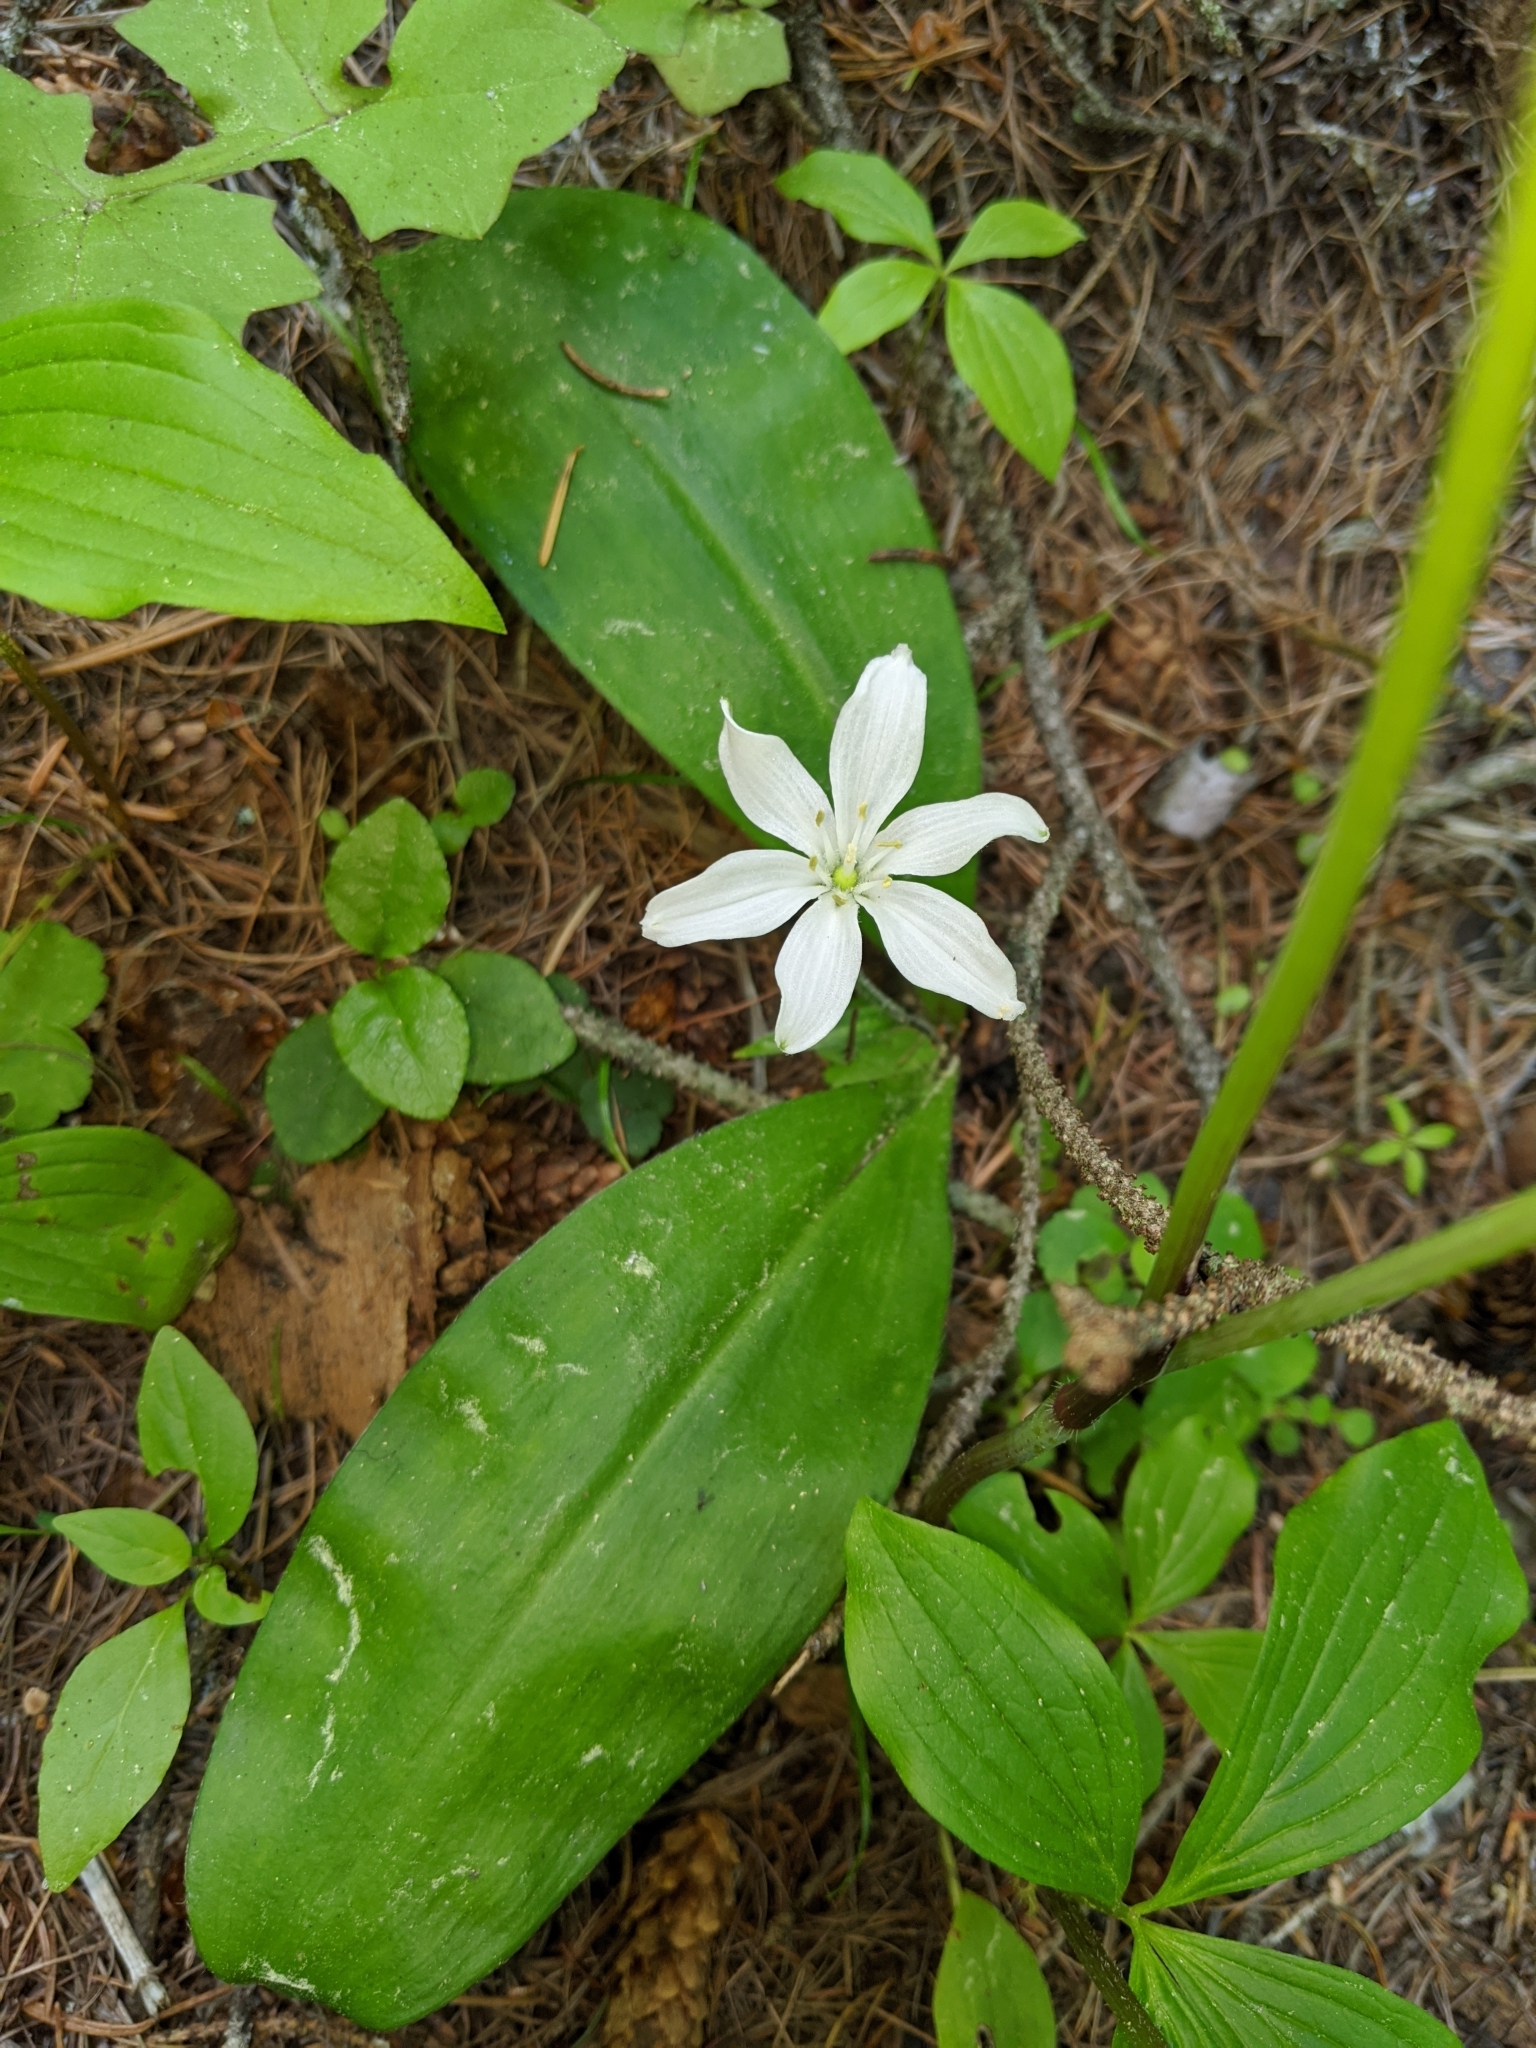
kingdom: Plantae
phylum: Tracheophyta
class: Liliopsida
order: Liliales
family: Liliaceae
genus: Clintonia
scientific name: Clintonia uniflora
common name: Queen's cup
